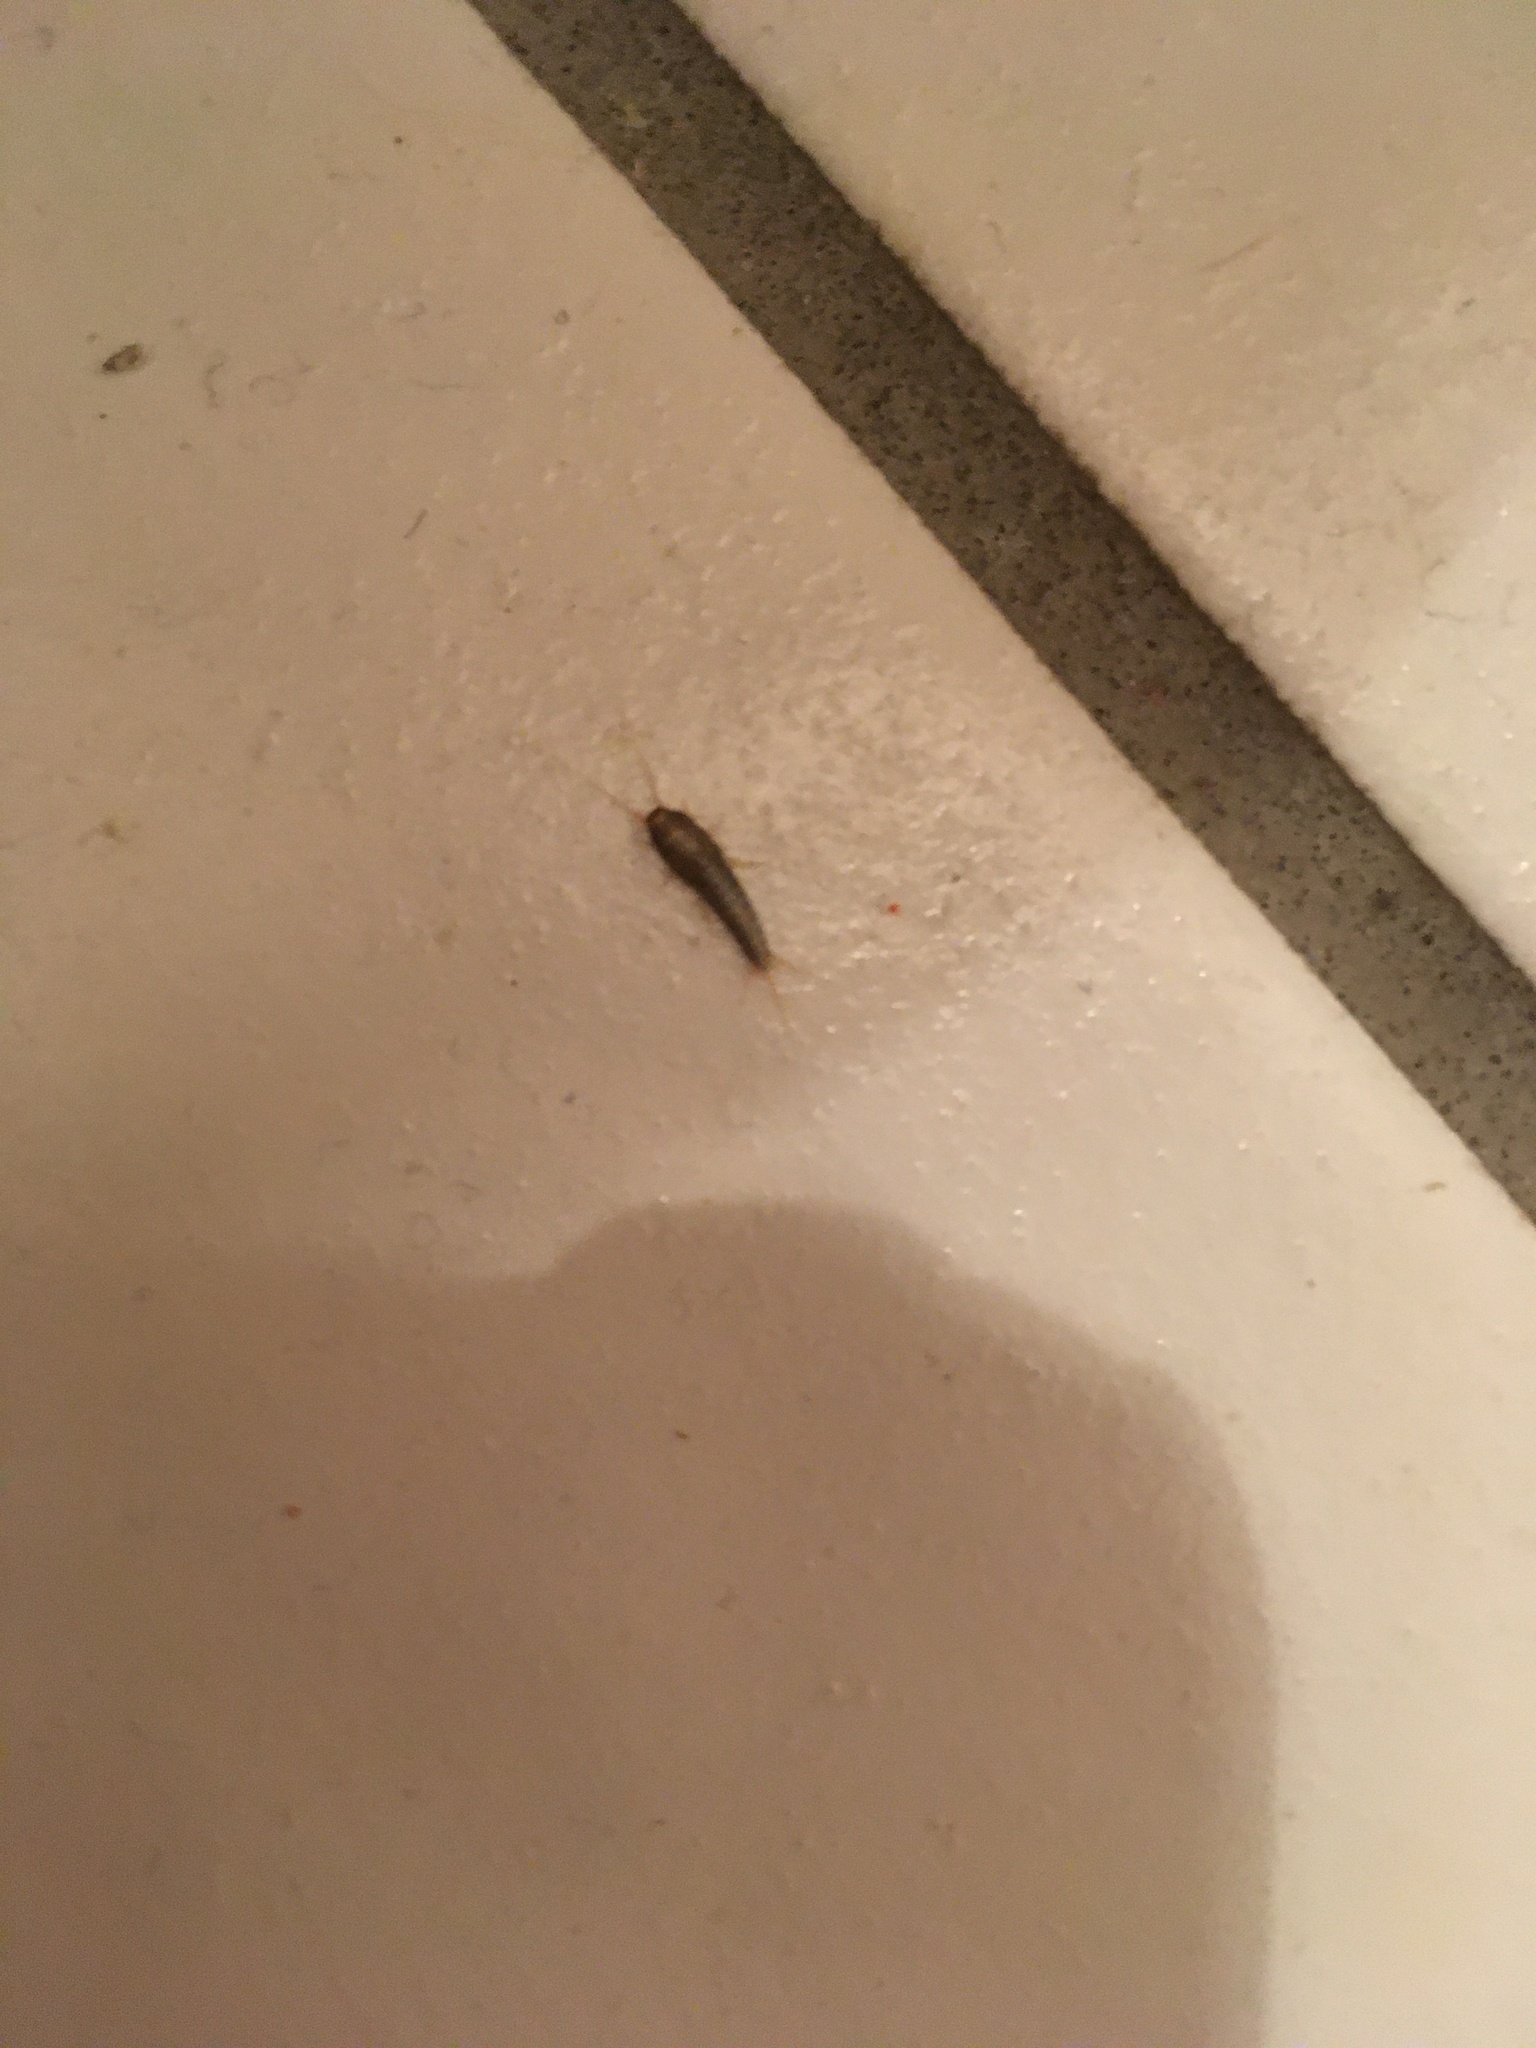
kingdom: Animalia
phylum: Arthropoda
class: Insecta
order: Zygentoma
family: Lepismatidae
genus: Lepisma
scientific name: Lepisma saccharinum
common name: Silverfish
